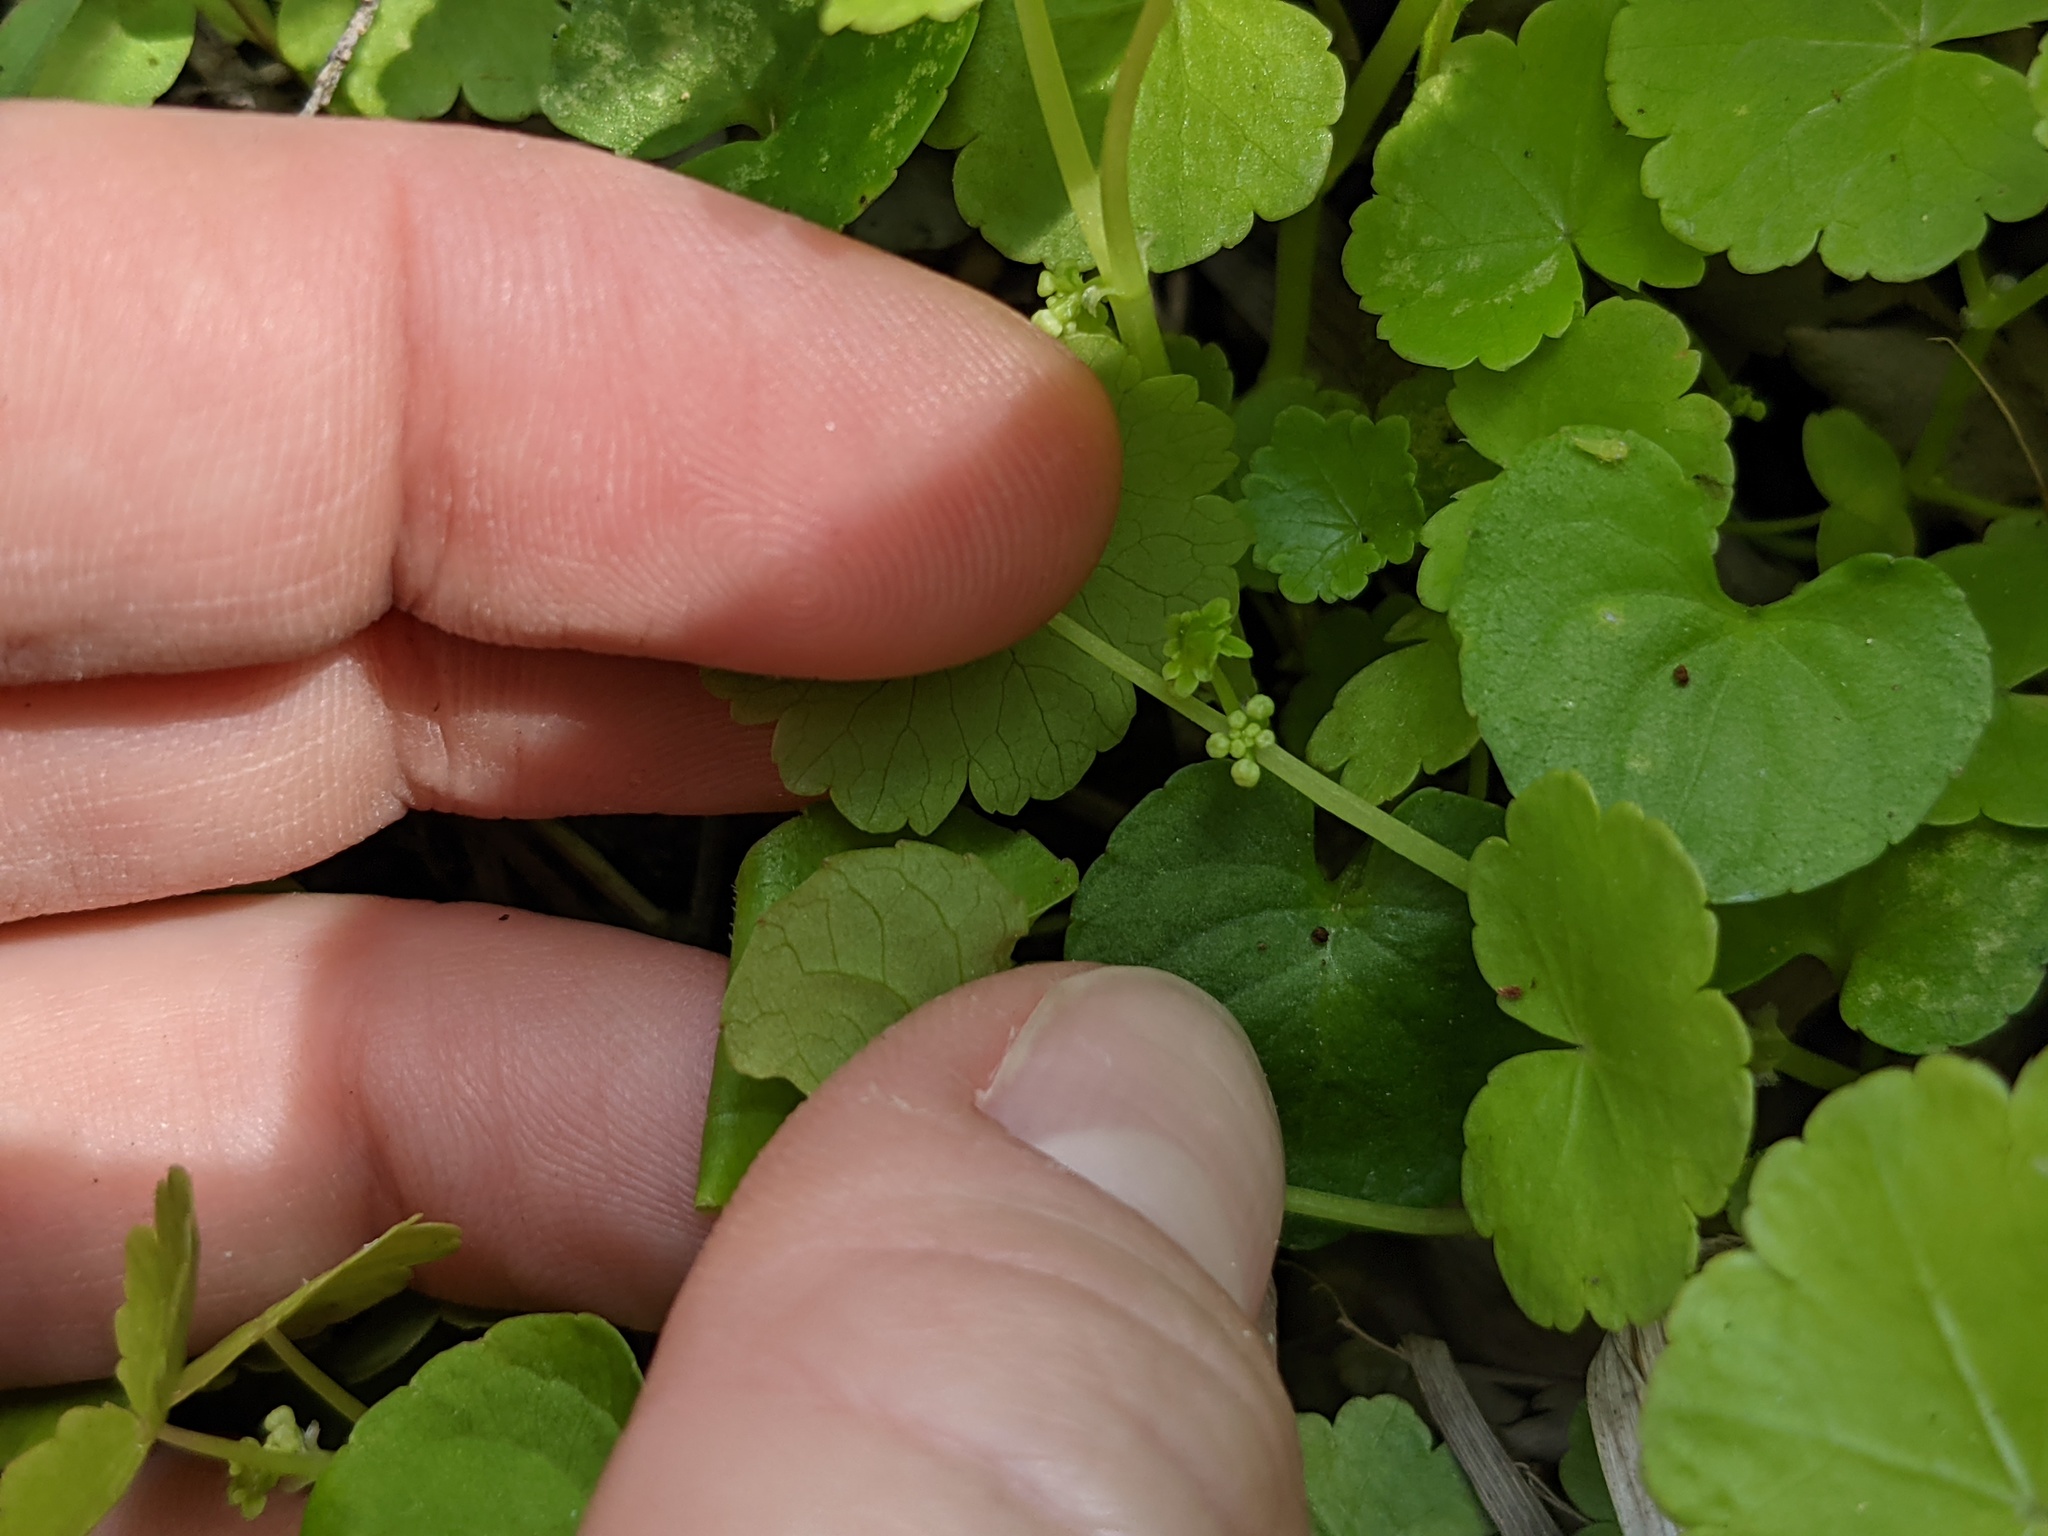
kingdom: Plantae
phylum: Tracheophyta
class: Magnoliopsida
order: Apiales
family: Araliaceae
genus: Hydrocotyle
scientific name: Hydrocotyle americana
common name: American water-pennywort
